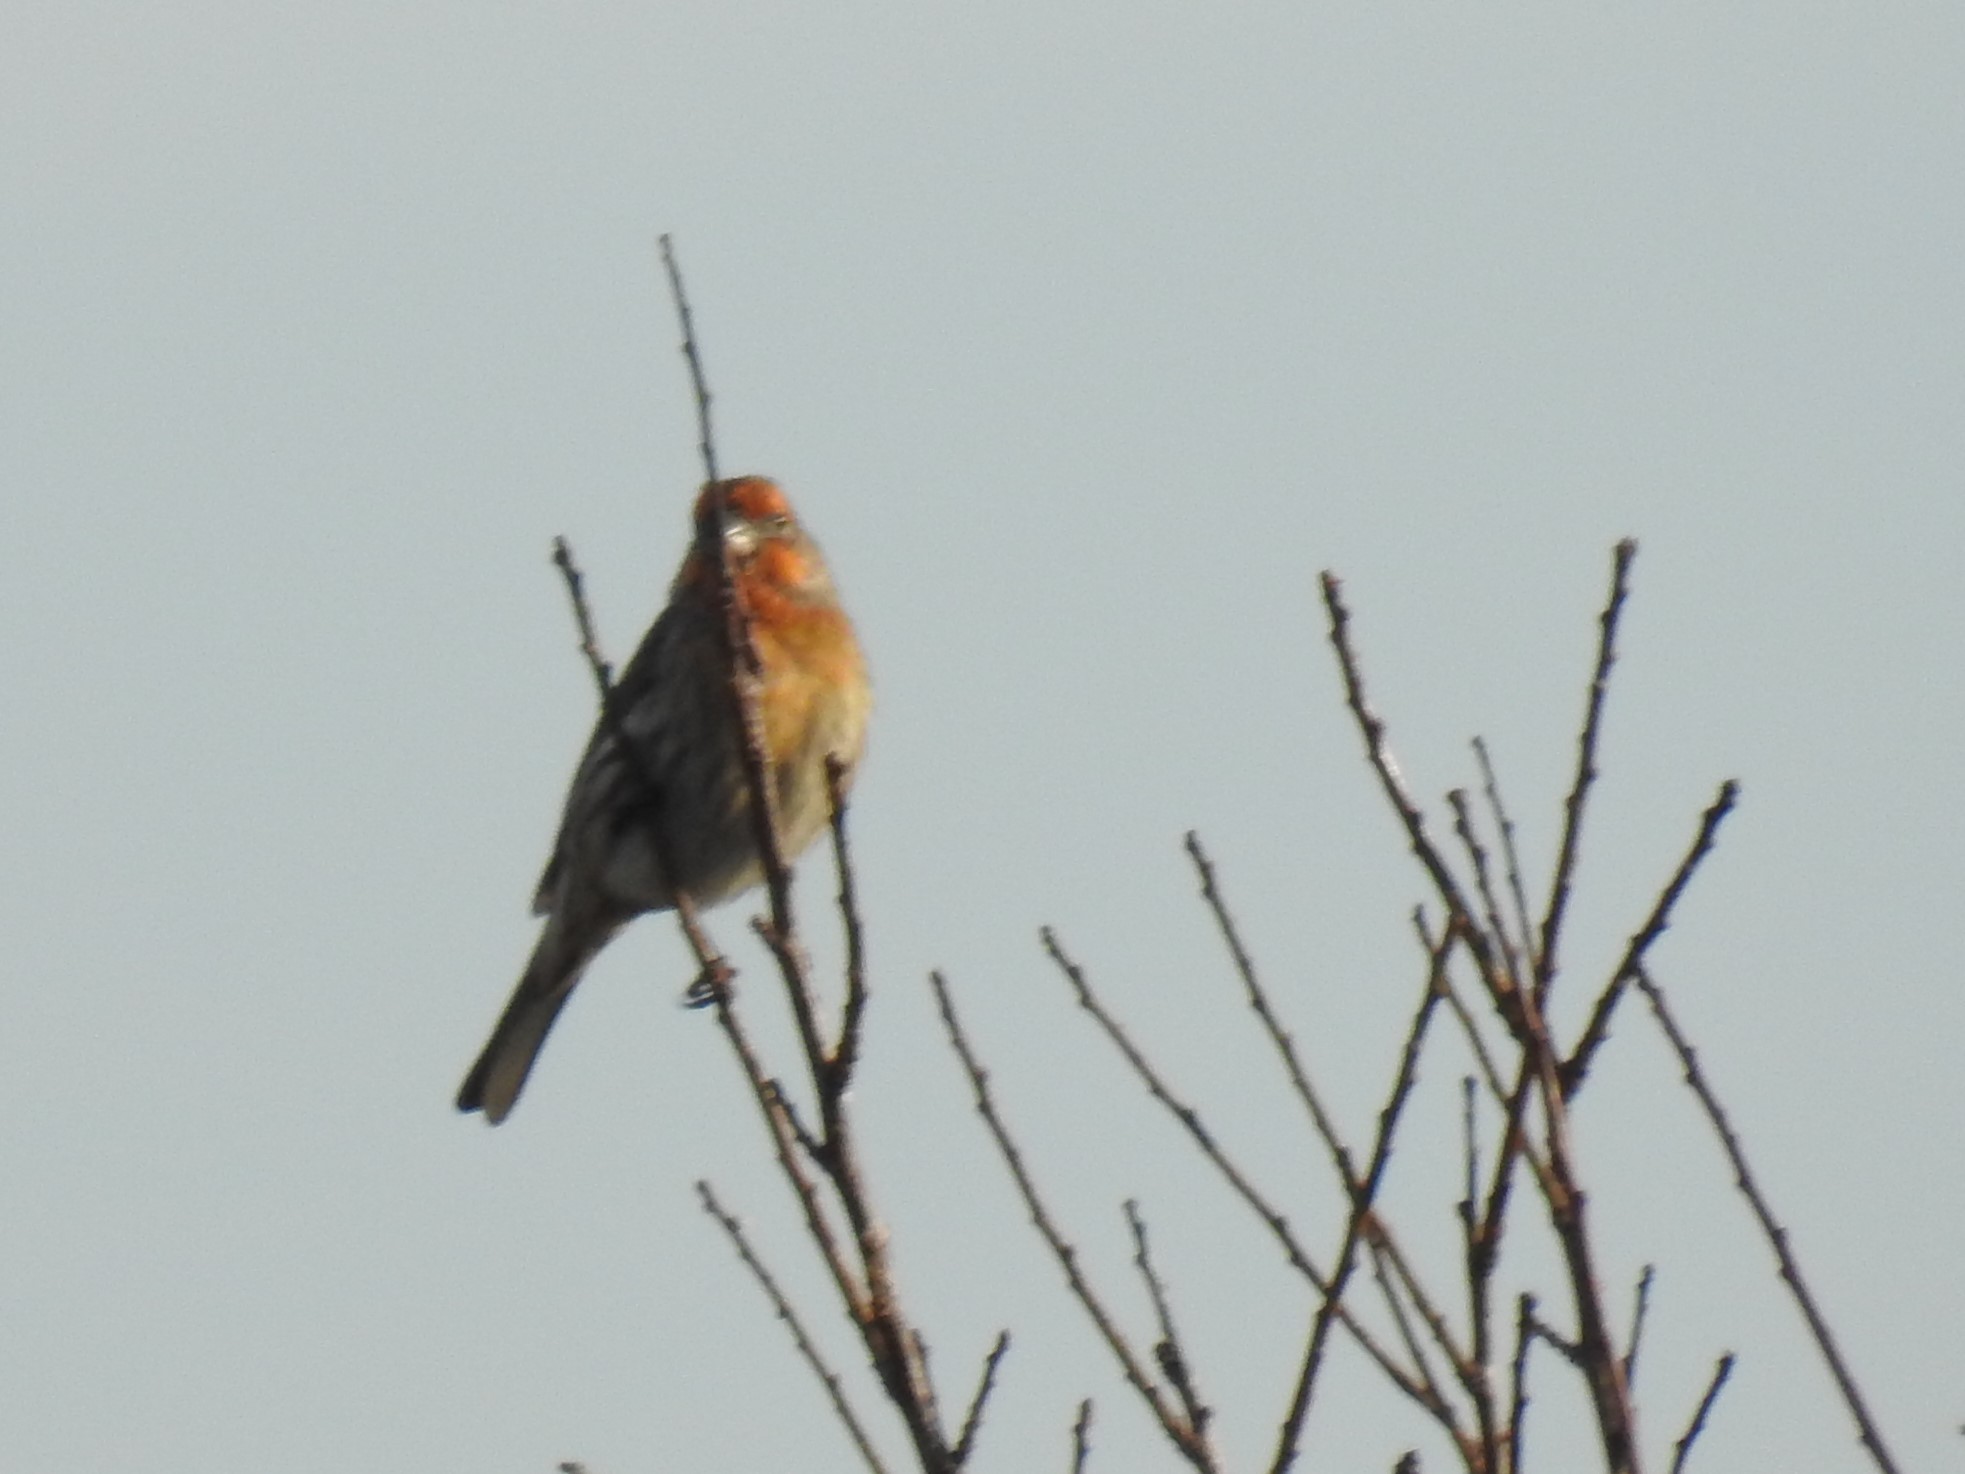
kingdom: Animalia
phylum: Chordata
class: Aves
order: Passeriformes
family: Fringillidae
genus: Haemorhous
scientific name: Haemorhous mexicanus
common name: House finch
